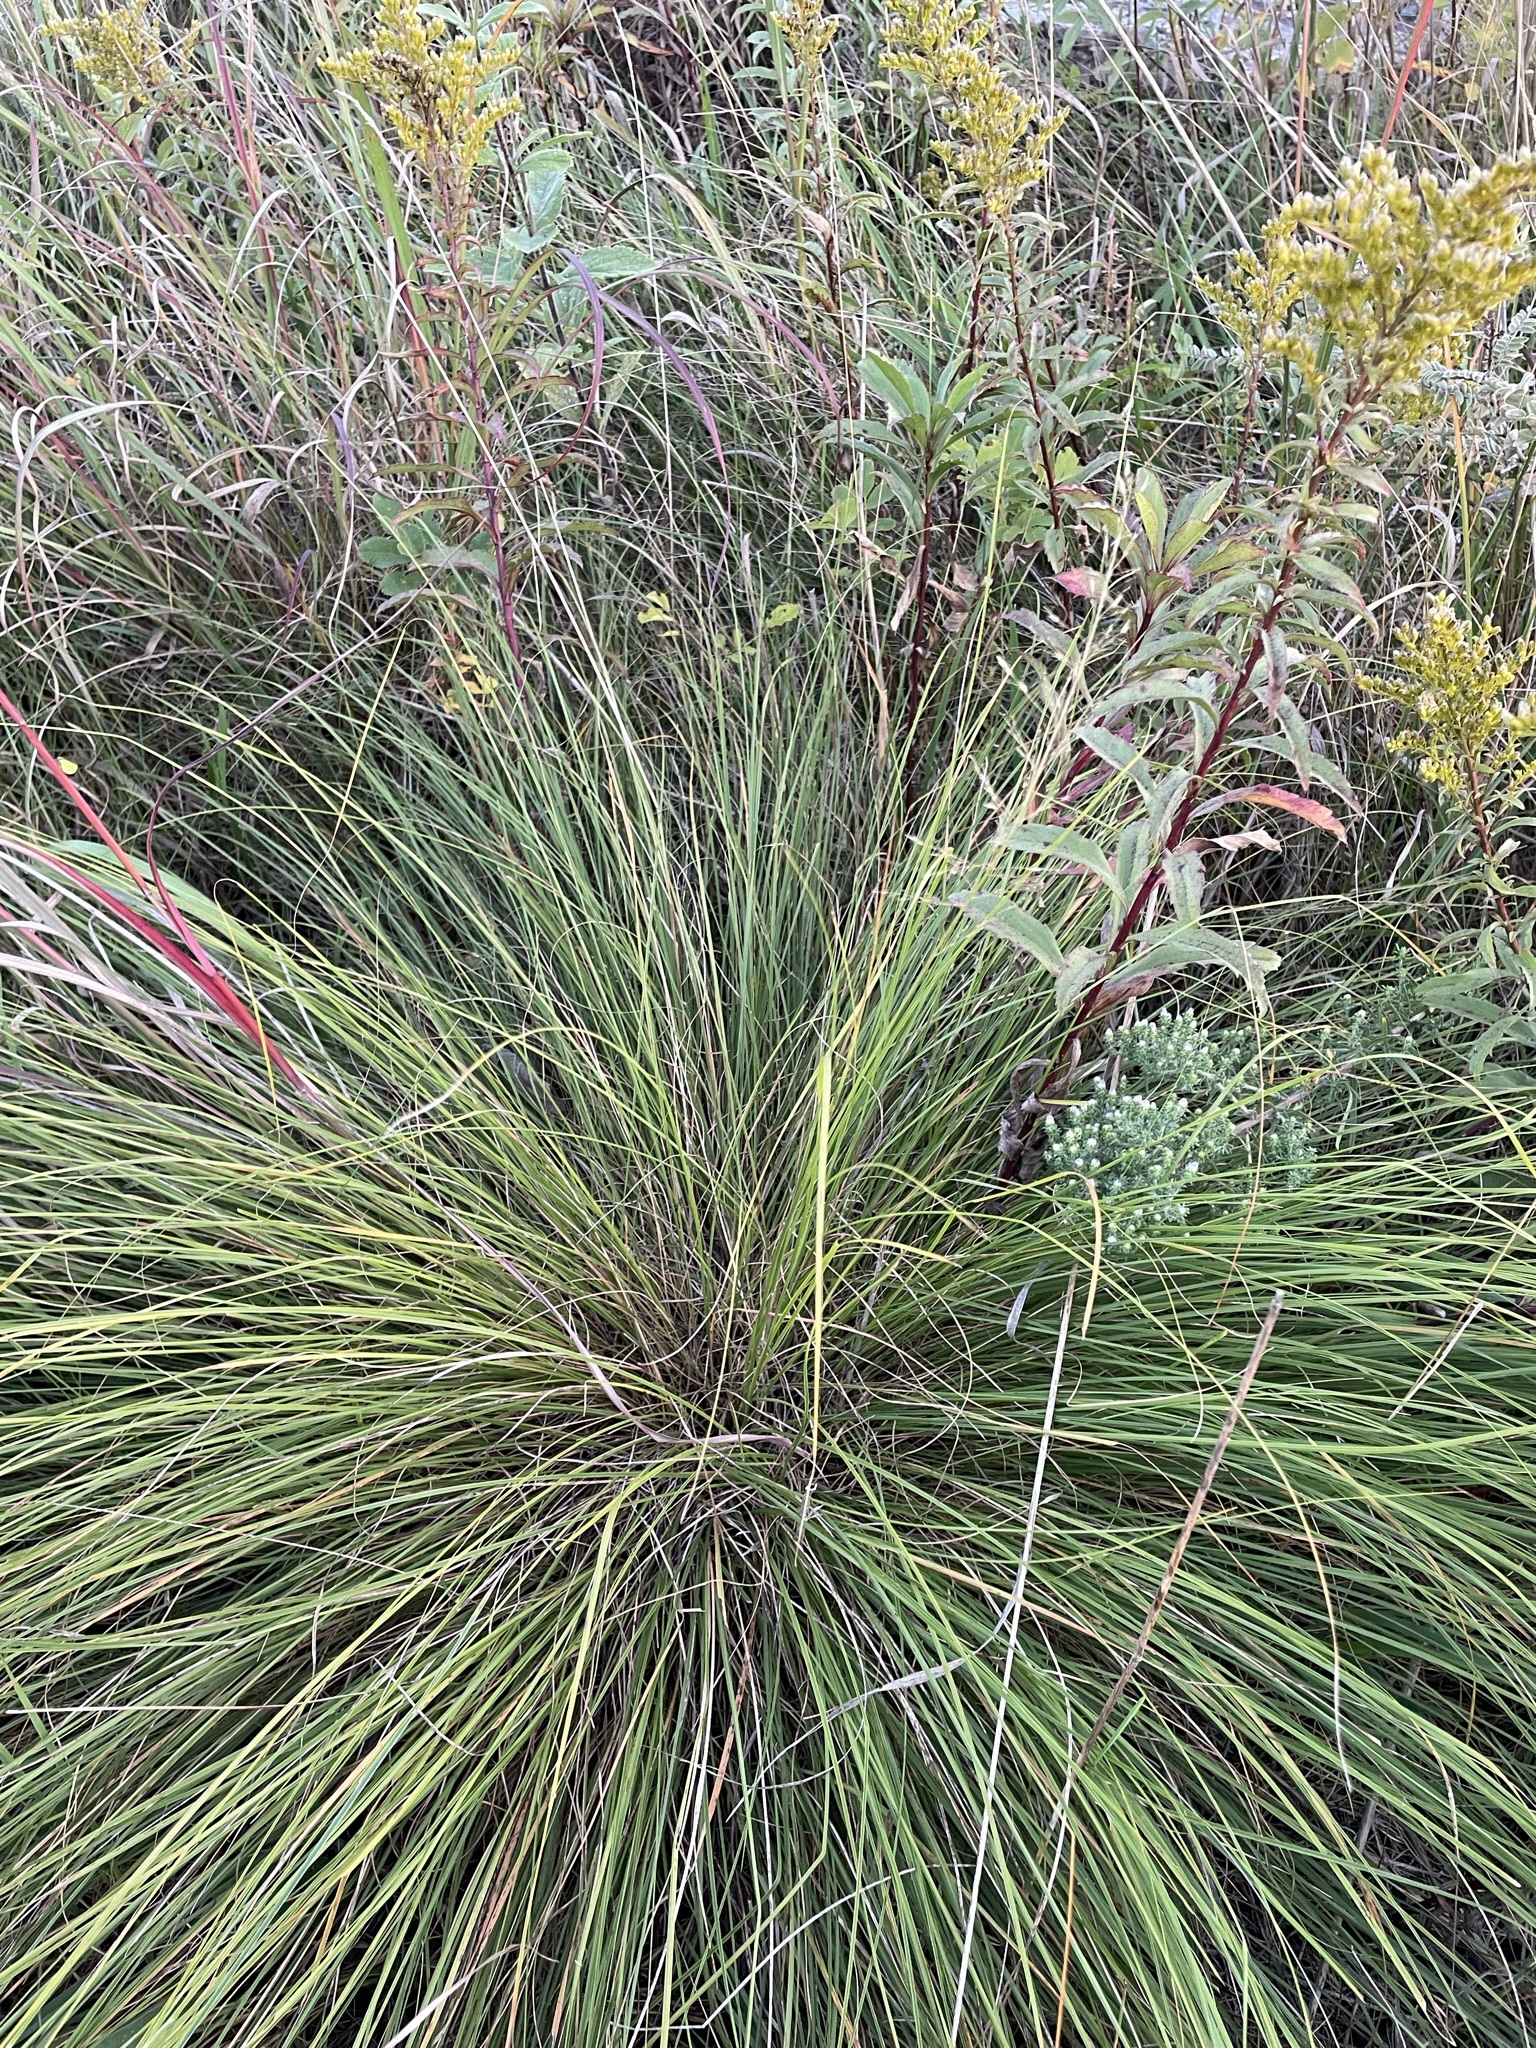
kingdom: Plantae
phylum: Tracheophyta
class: Liliopsida
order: Poales
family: Poaceae
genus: Sporobolus
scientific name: Sporobolus heterolepis
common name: Prairie dropseed
